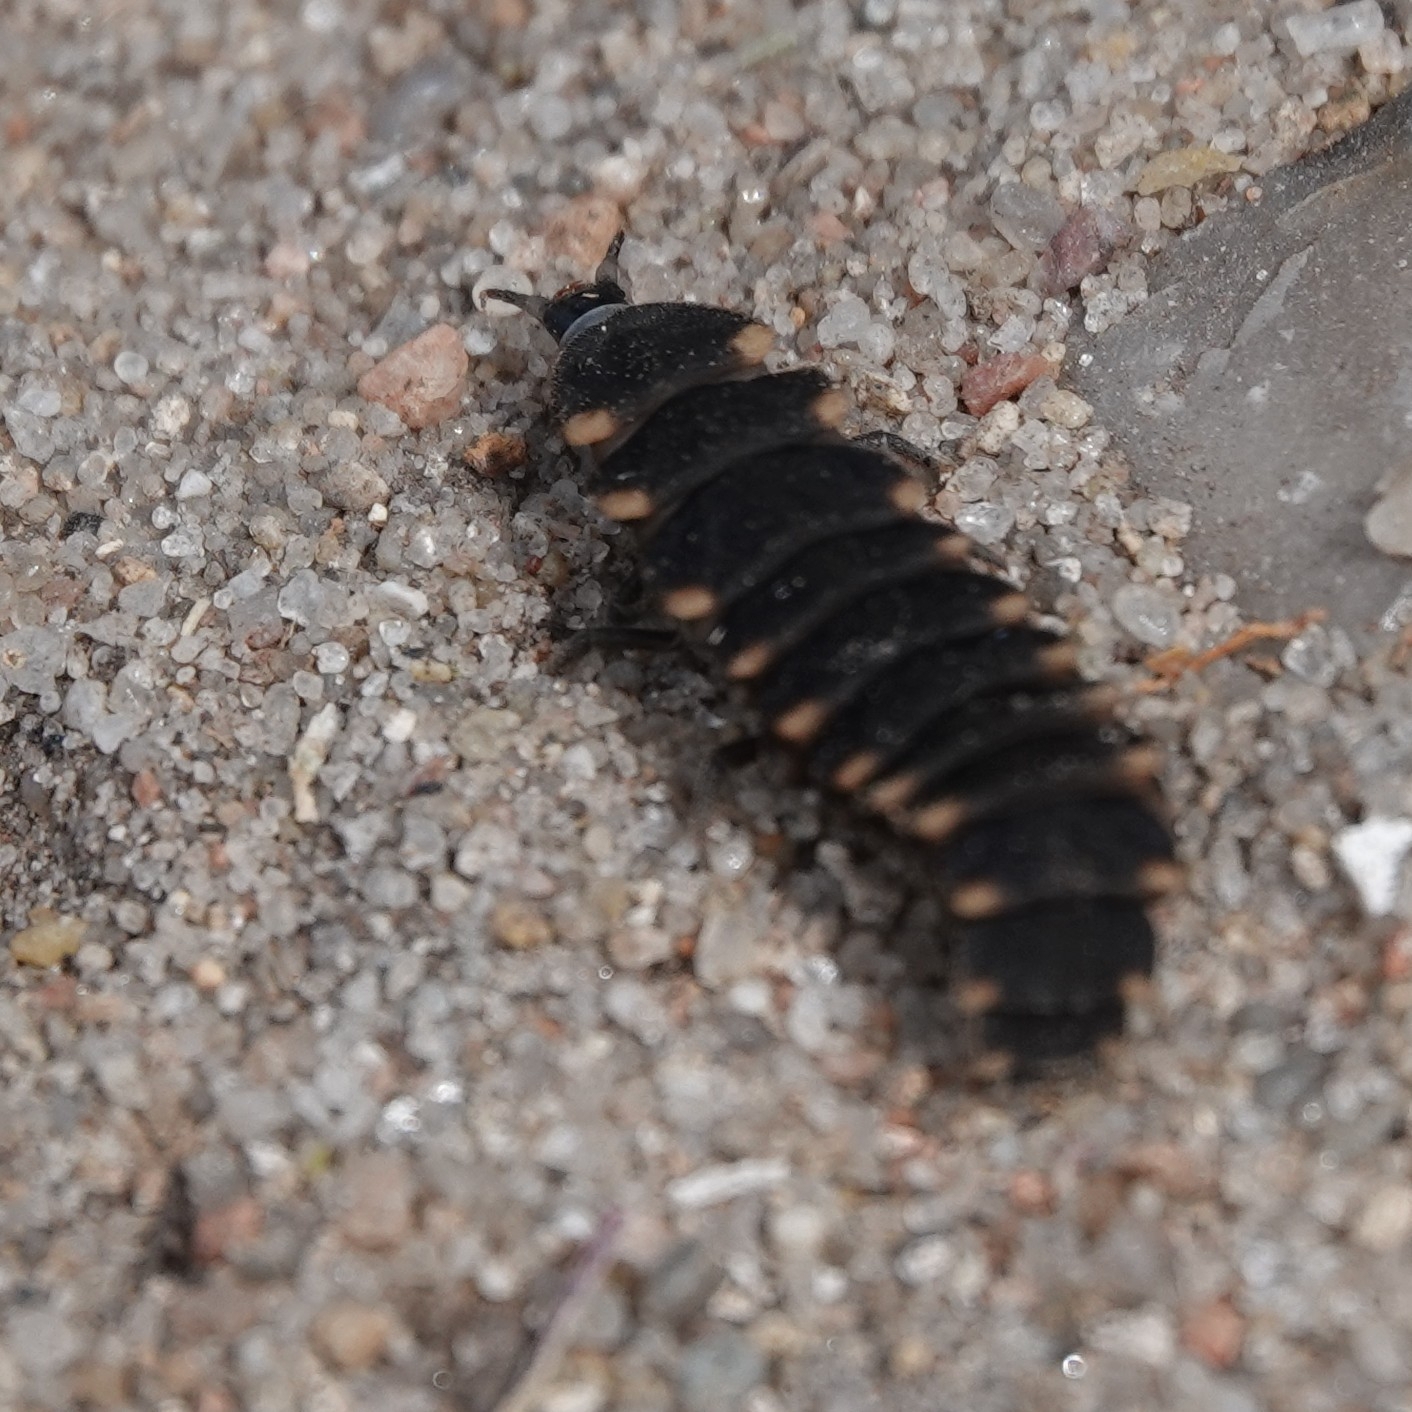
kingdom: Animalia
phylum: Arthropoda
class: Insecta
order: Coleoptera
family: Lampyridae
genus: Lampyris
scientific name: Lampyris noctiluca
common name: Glow-worm
